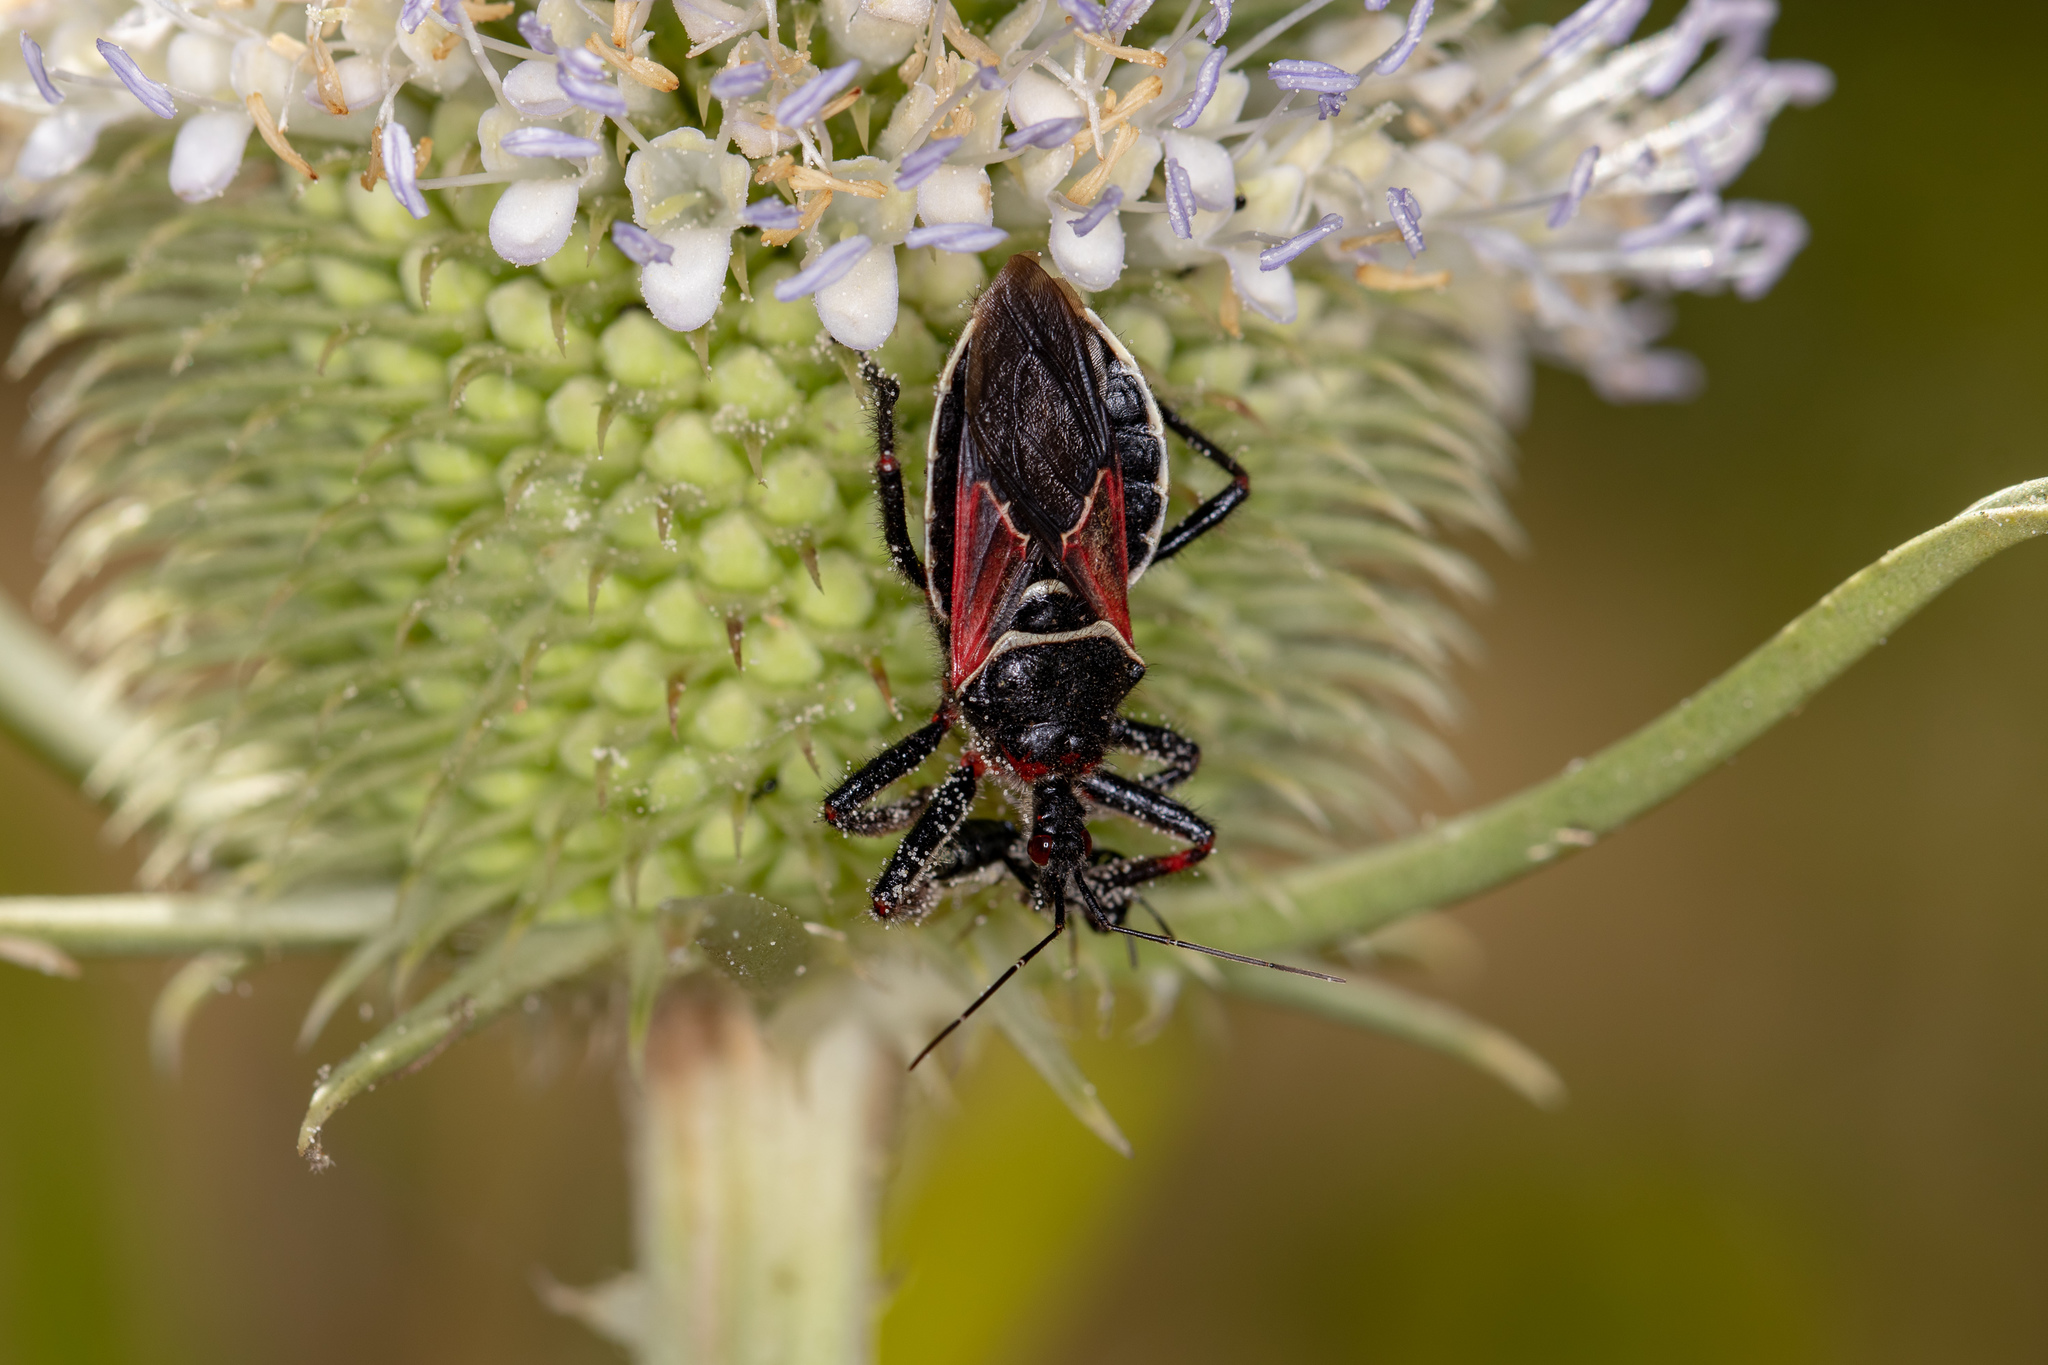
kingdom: Animalia
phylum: Arthropoda
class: Insecta
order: Hemiptera
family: Reduviidae
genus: Apiomerus
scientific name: Apiomerus californicus
